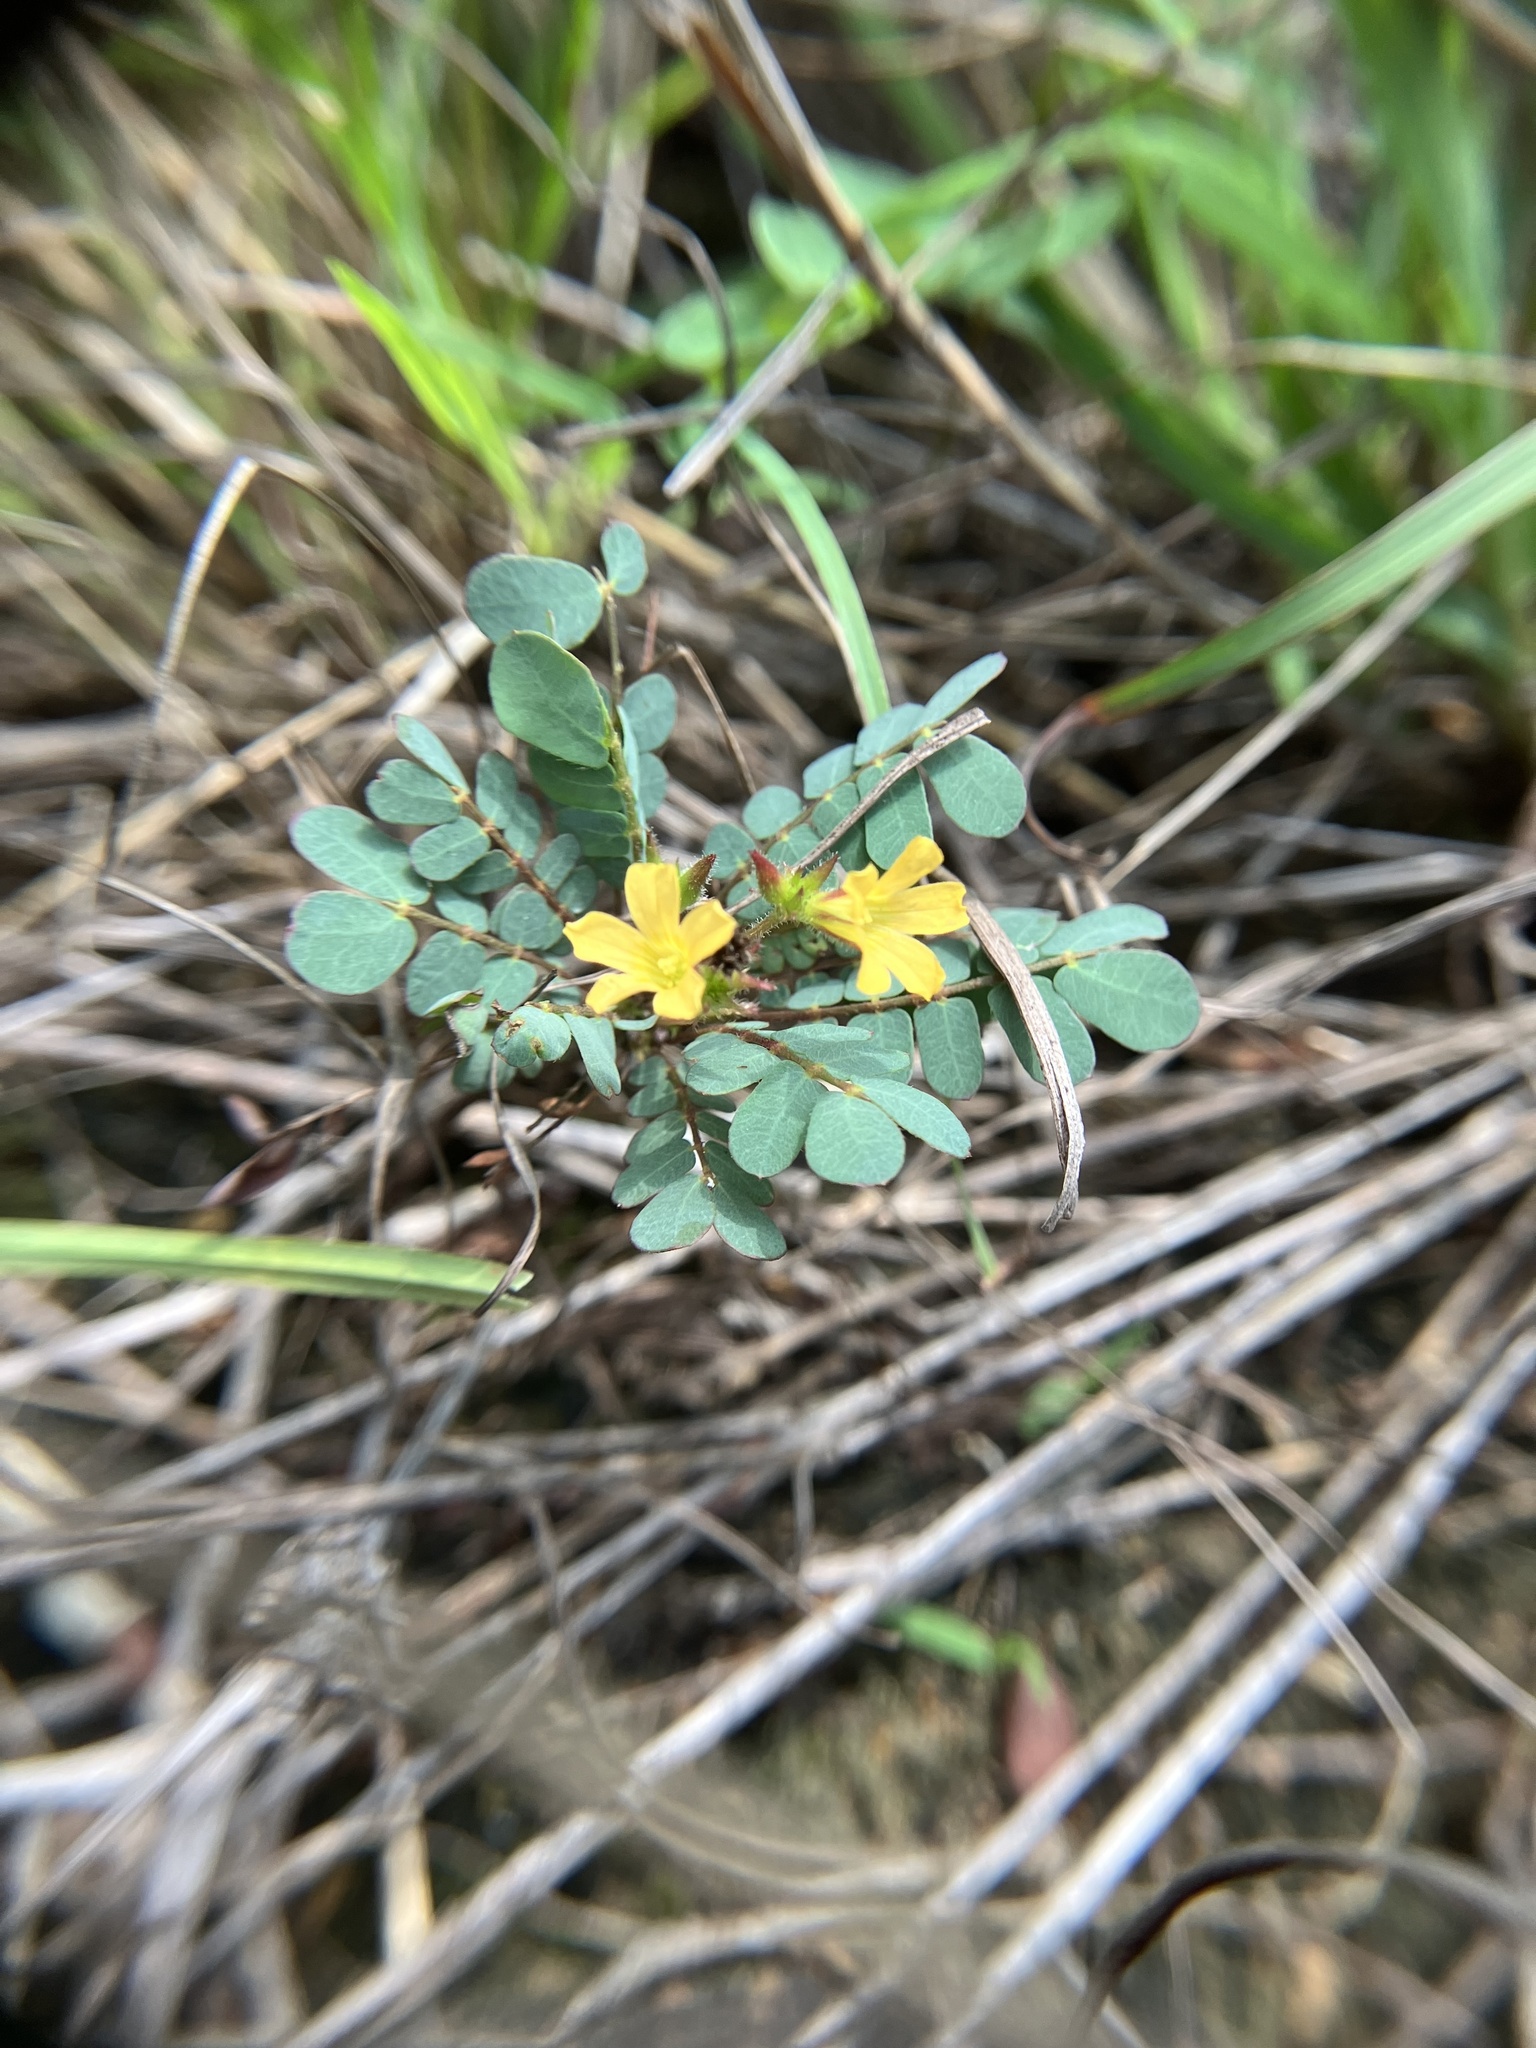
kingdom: Plantae
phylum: Tracheophyta
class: Magnoliopsida
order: Oxalidales
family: Oxalidaceae
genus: Biophytum
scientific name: Biophytum sensitivum
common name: Lifeplant
